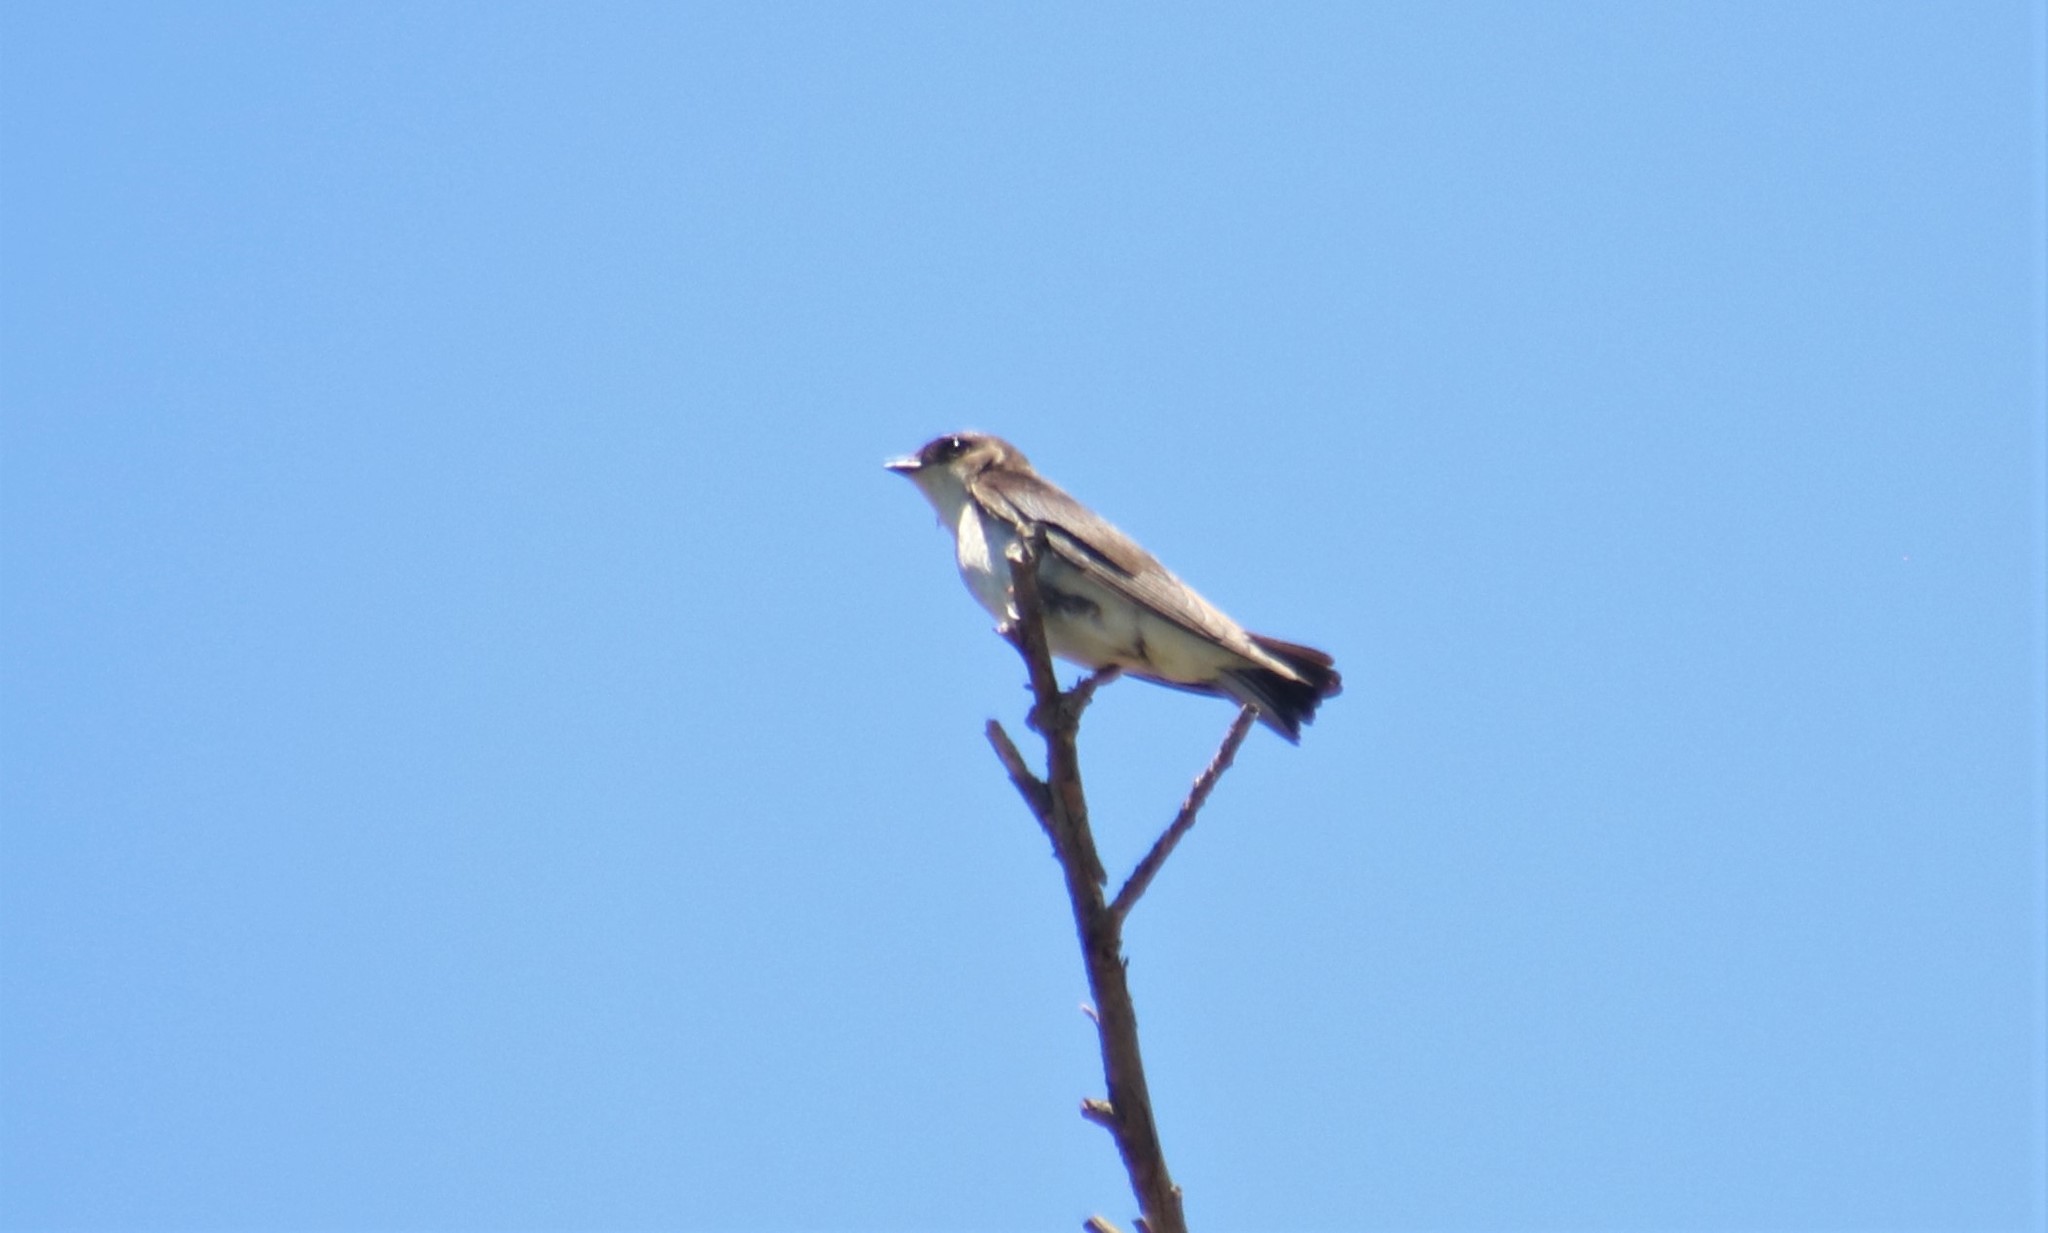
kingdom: Animalia
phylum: Chordata
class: Aves
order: Passeriformes
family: Hirundinidae
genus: Tachycineta
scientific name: Tachycineta bicolor
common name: Tree swallow
